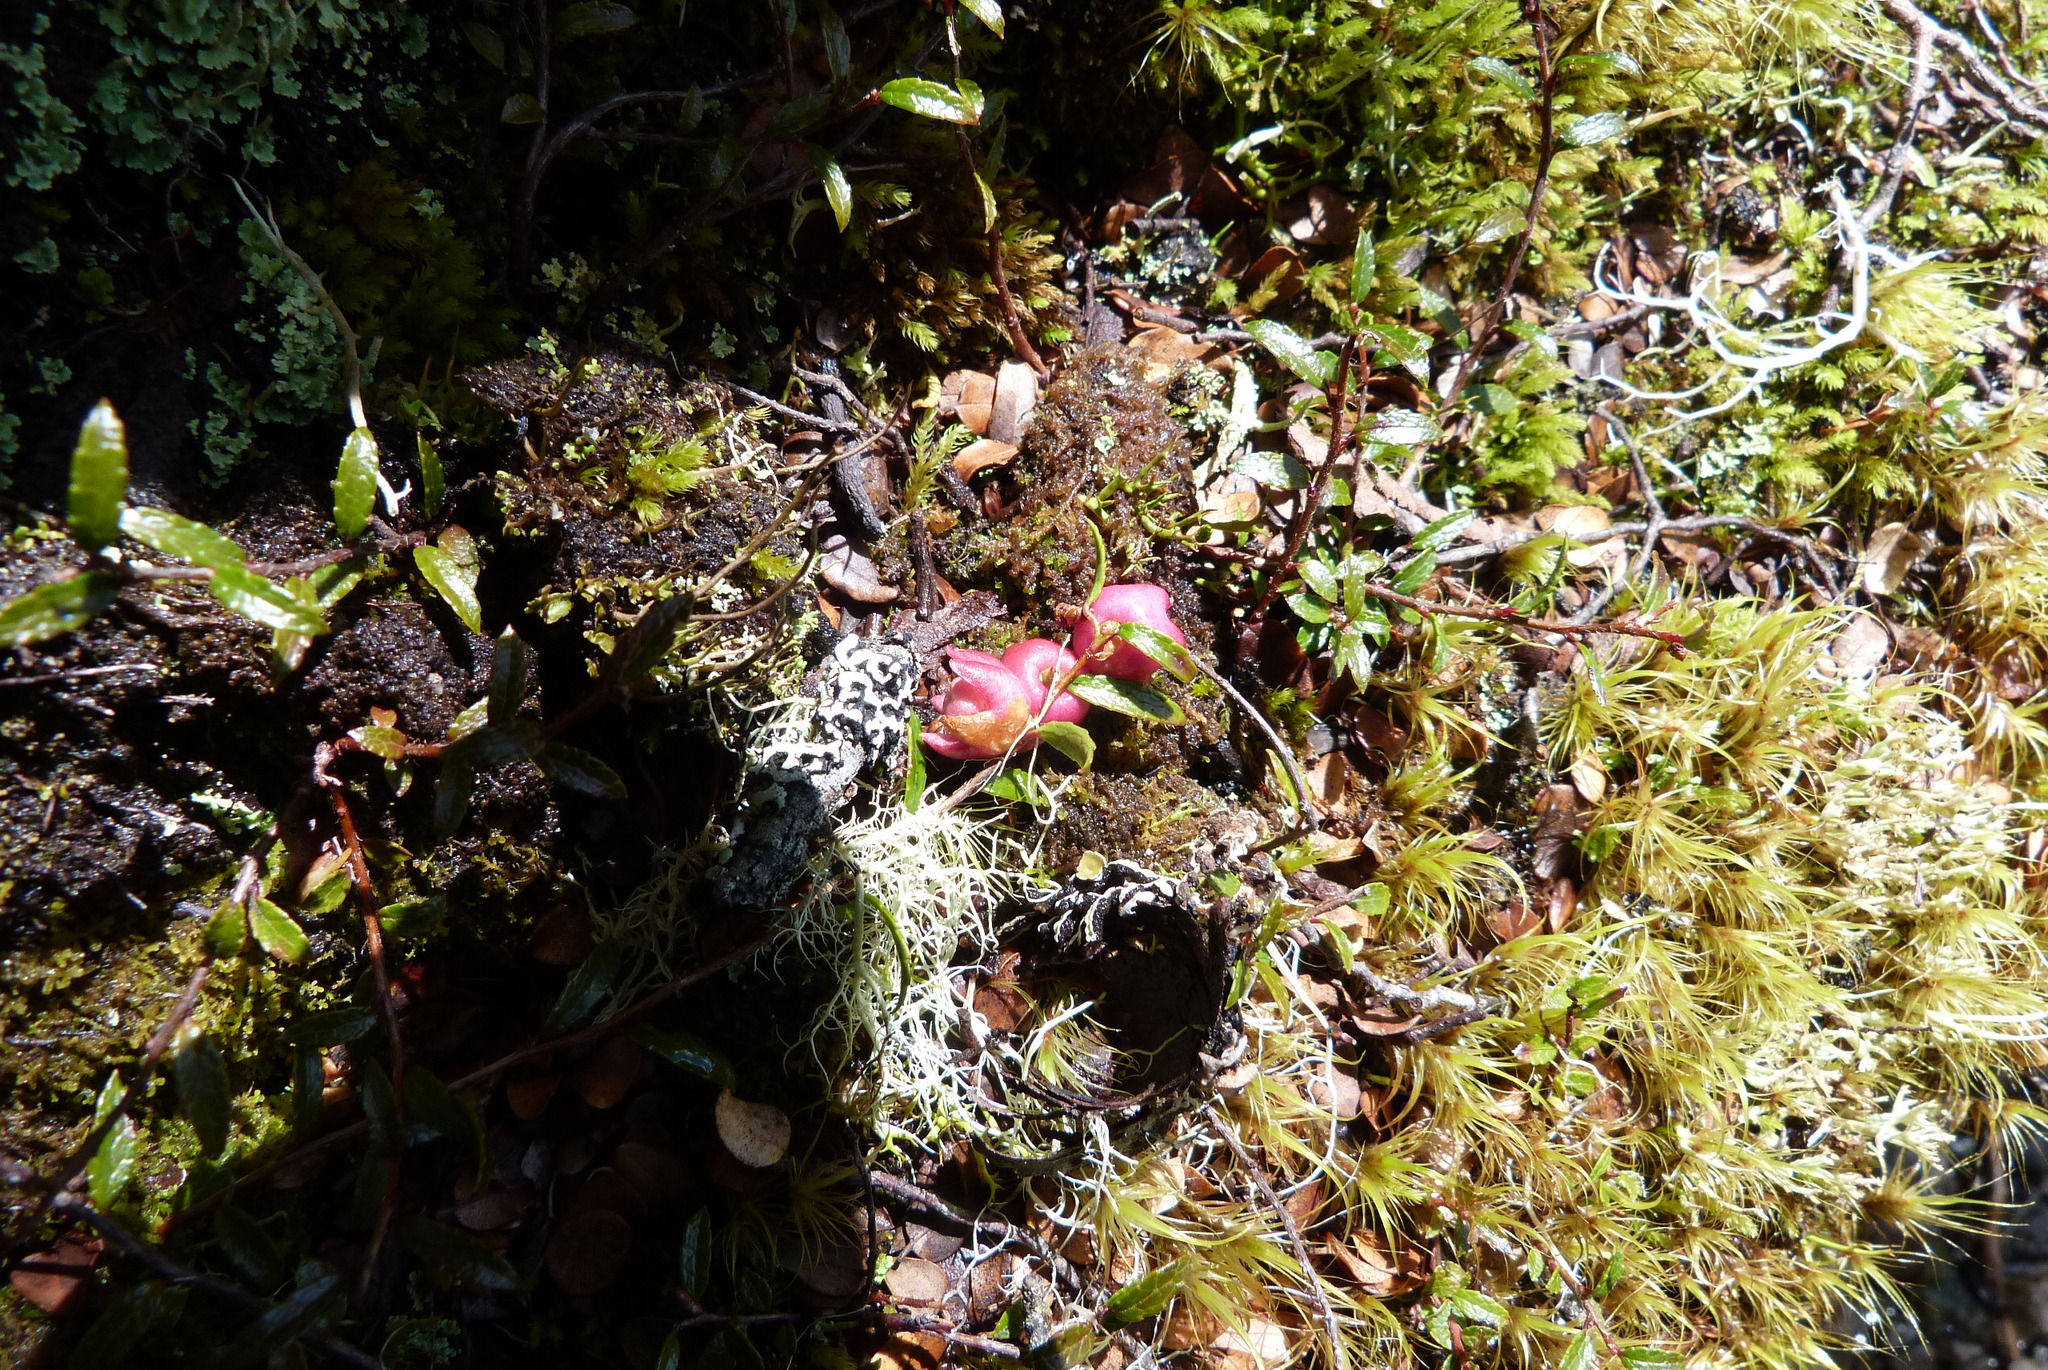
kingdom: Plantae
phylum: Tracheophyta
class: Magnoliopsida
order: Ericales
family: Ericaceae
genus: Gaultheria
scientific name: Gaultheria macrostigma
